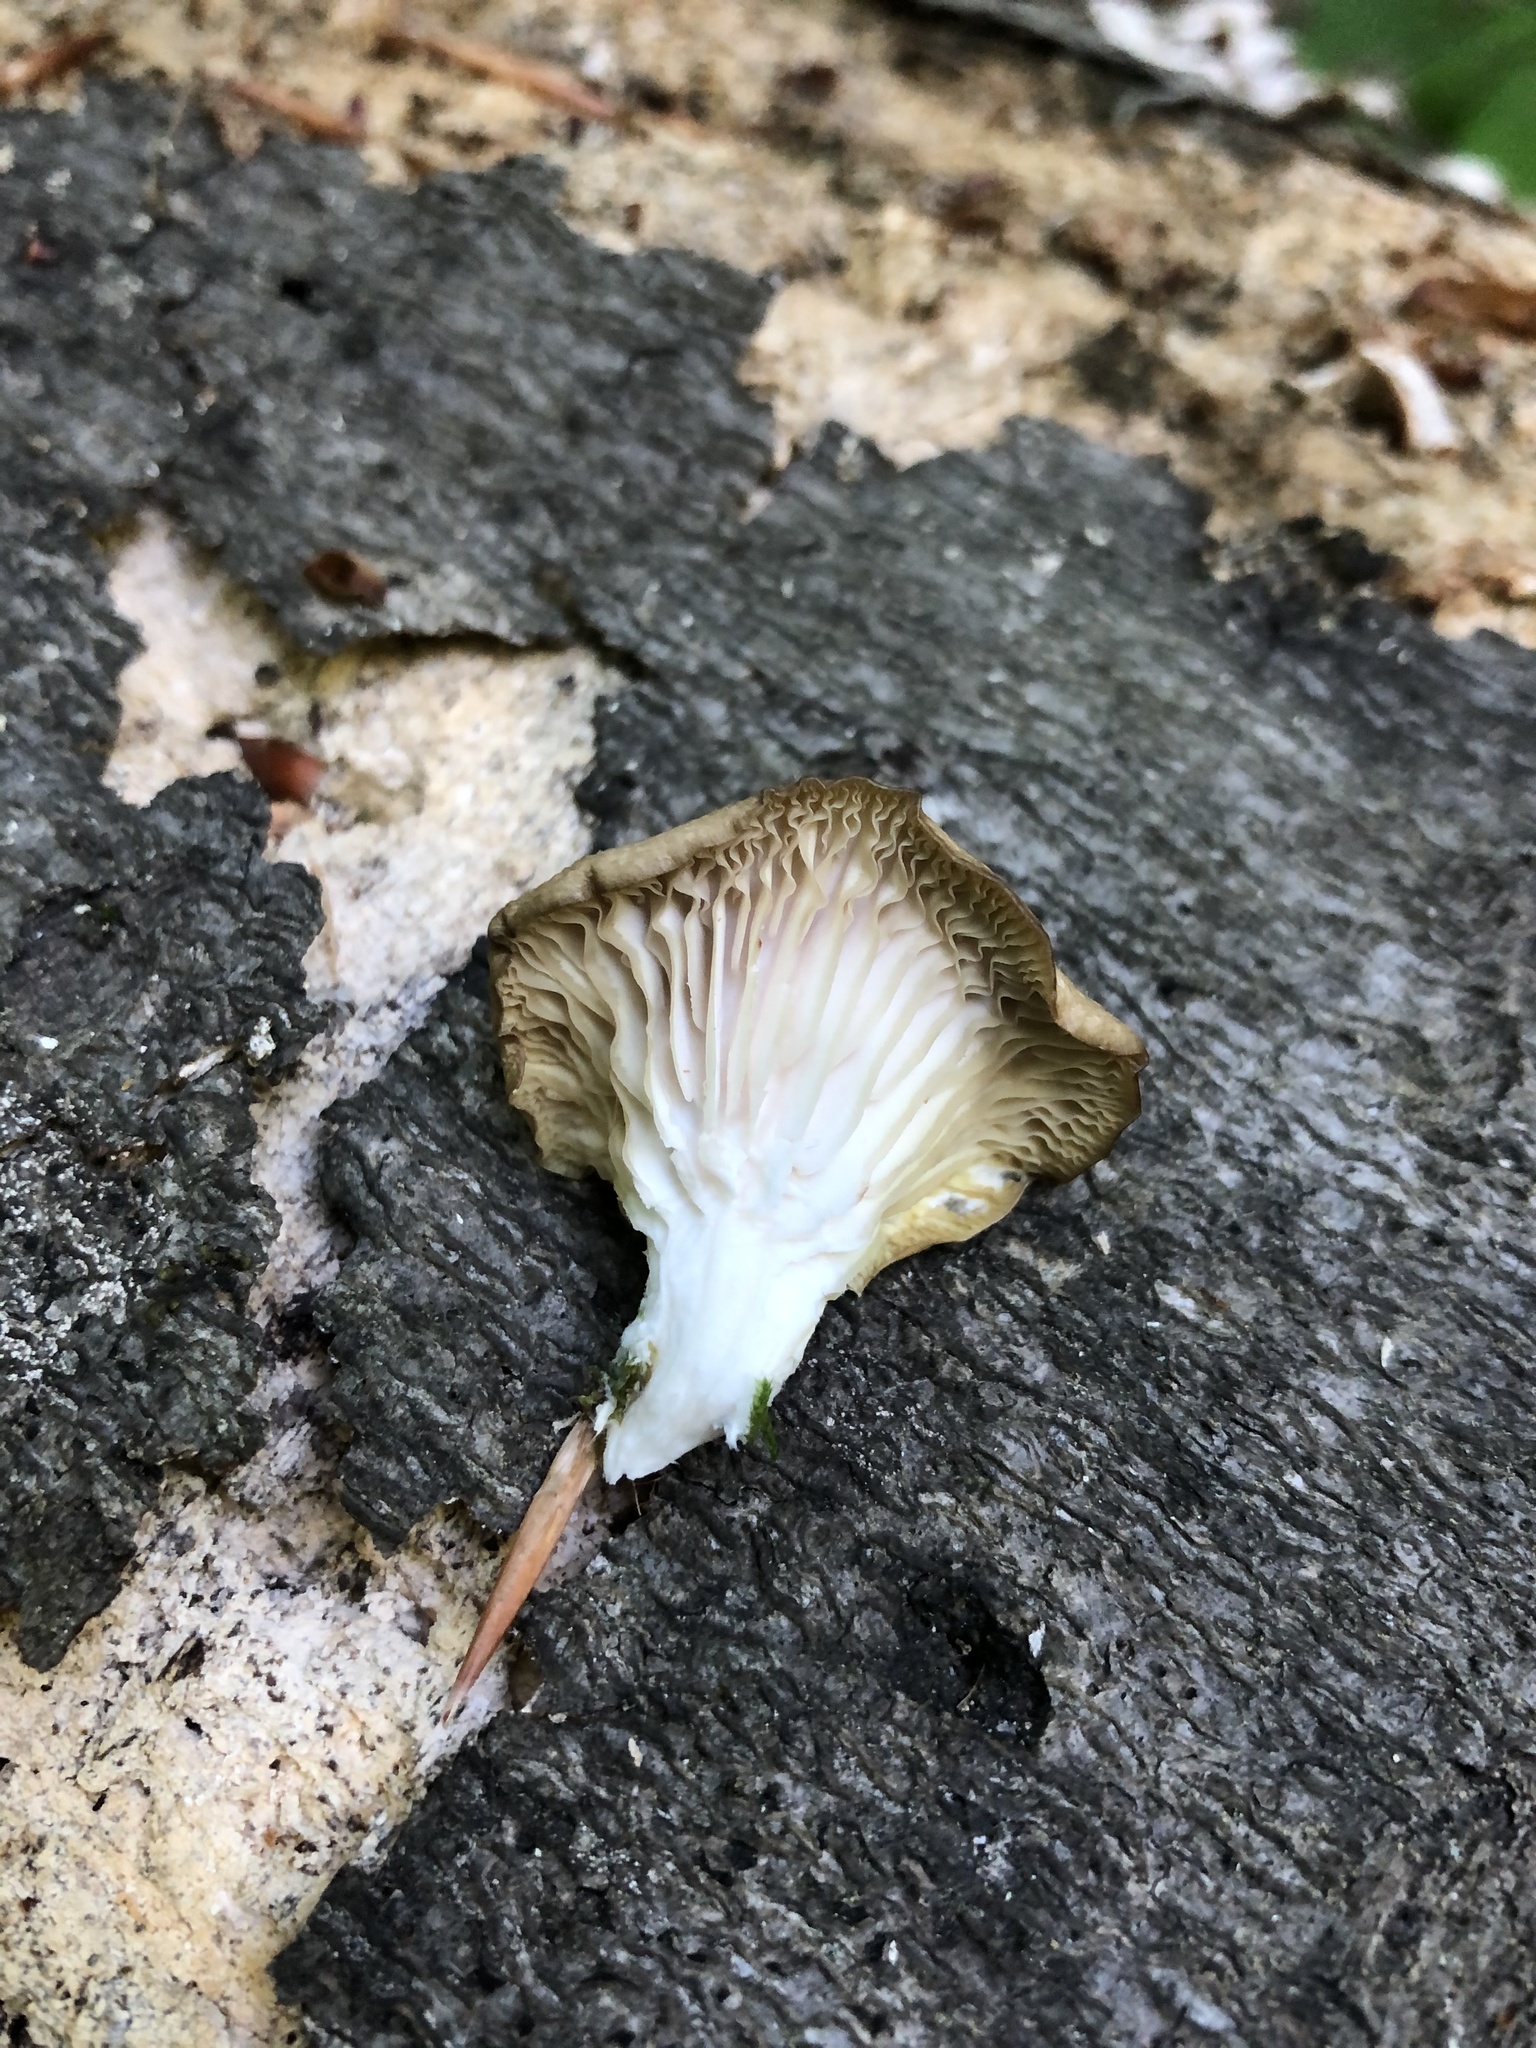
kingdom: Fungi
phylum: Basidiomycota
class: Agaricomycetes
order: Agaricales
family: Pleurotaceae
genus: Pleurotus
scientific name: Pleurotus ostreatus
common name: Oyster mushroom
